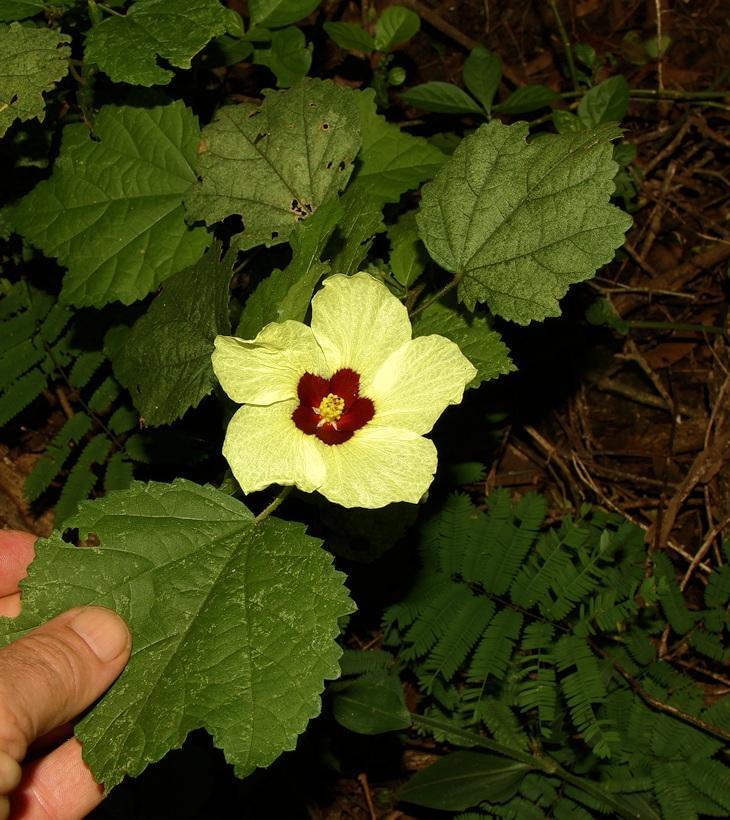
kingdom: Plantae
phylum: Tracheophyta
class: Magnoliopsida
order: Malvales
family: Malvaceae
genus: Hibiscus
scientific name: Hibiscus calyphyllus
